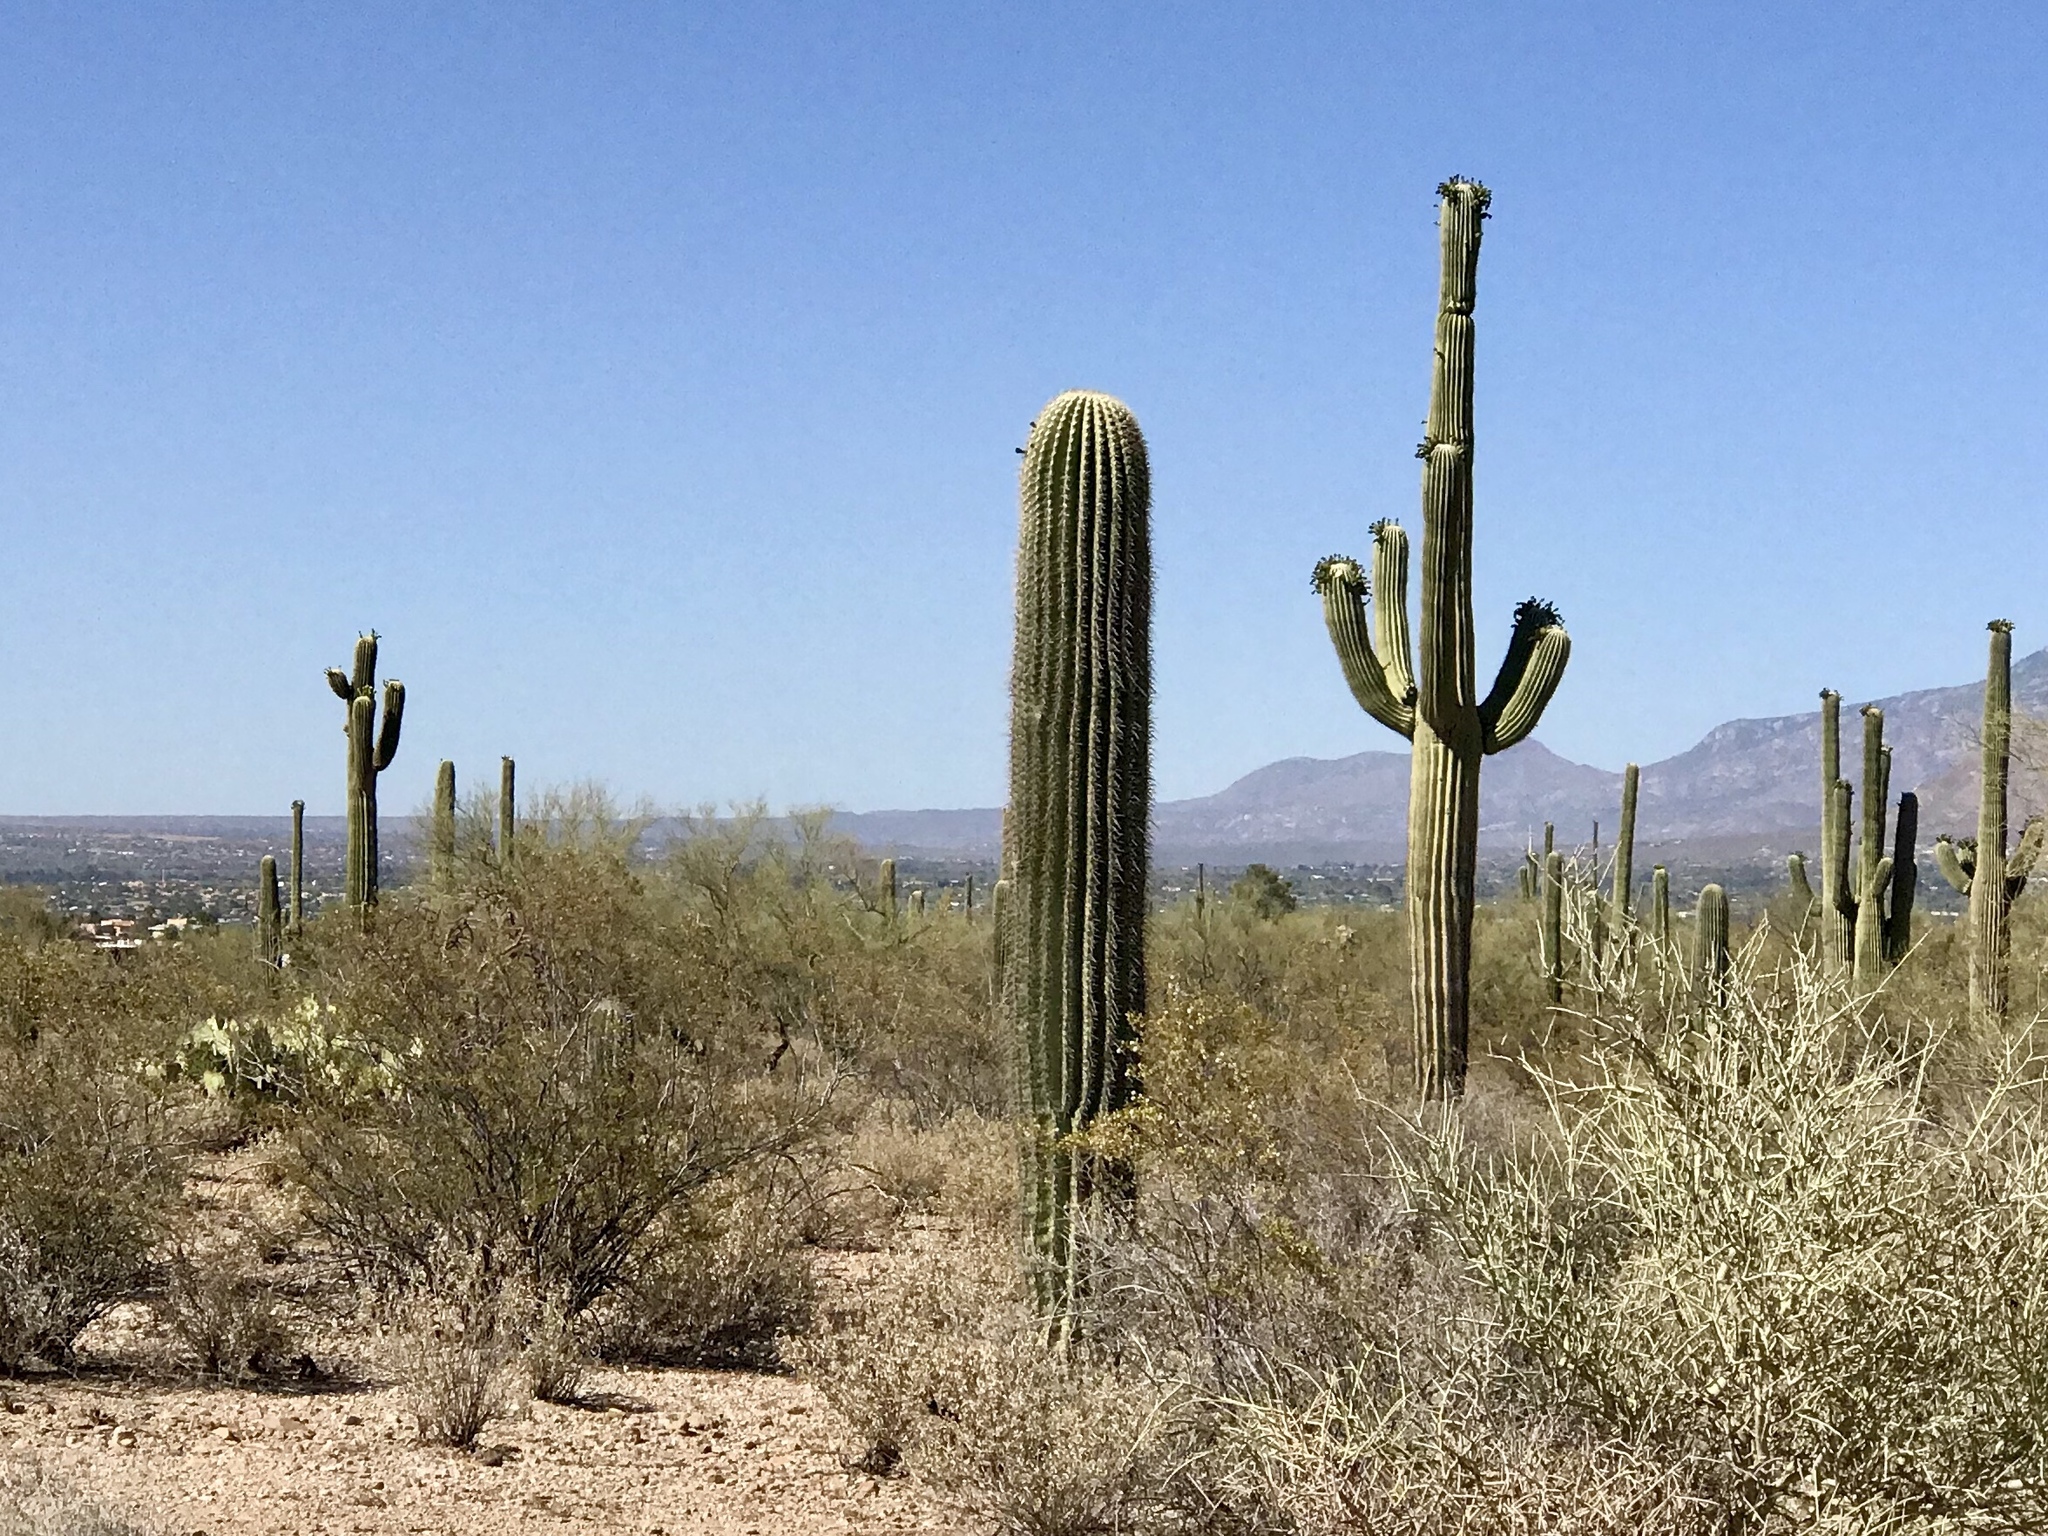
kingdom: Plantae
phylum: Tracheophyta
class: Magnoliopsida
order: Caryophyllales
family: Cactaceae
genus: Carnegiea
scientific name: Carnegiea gigantea
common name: Saguaro
